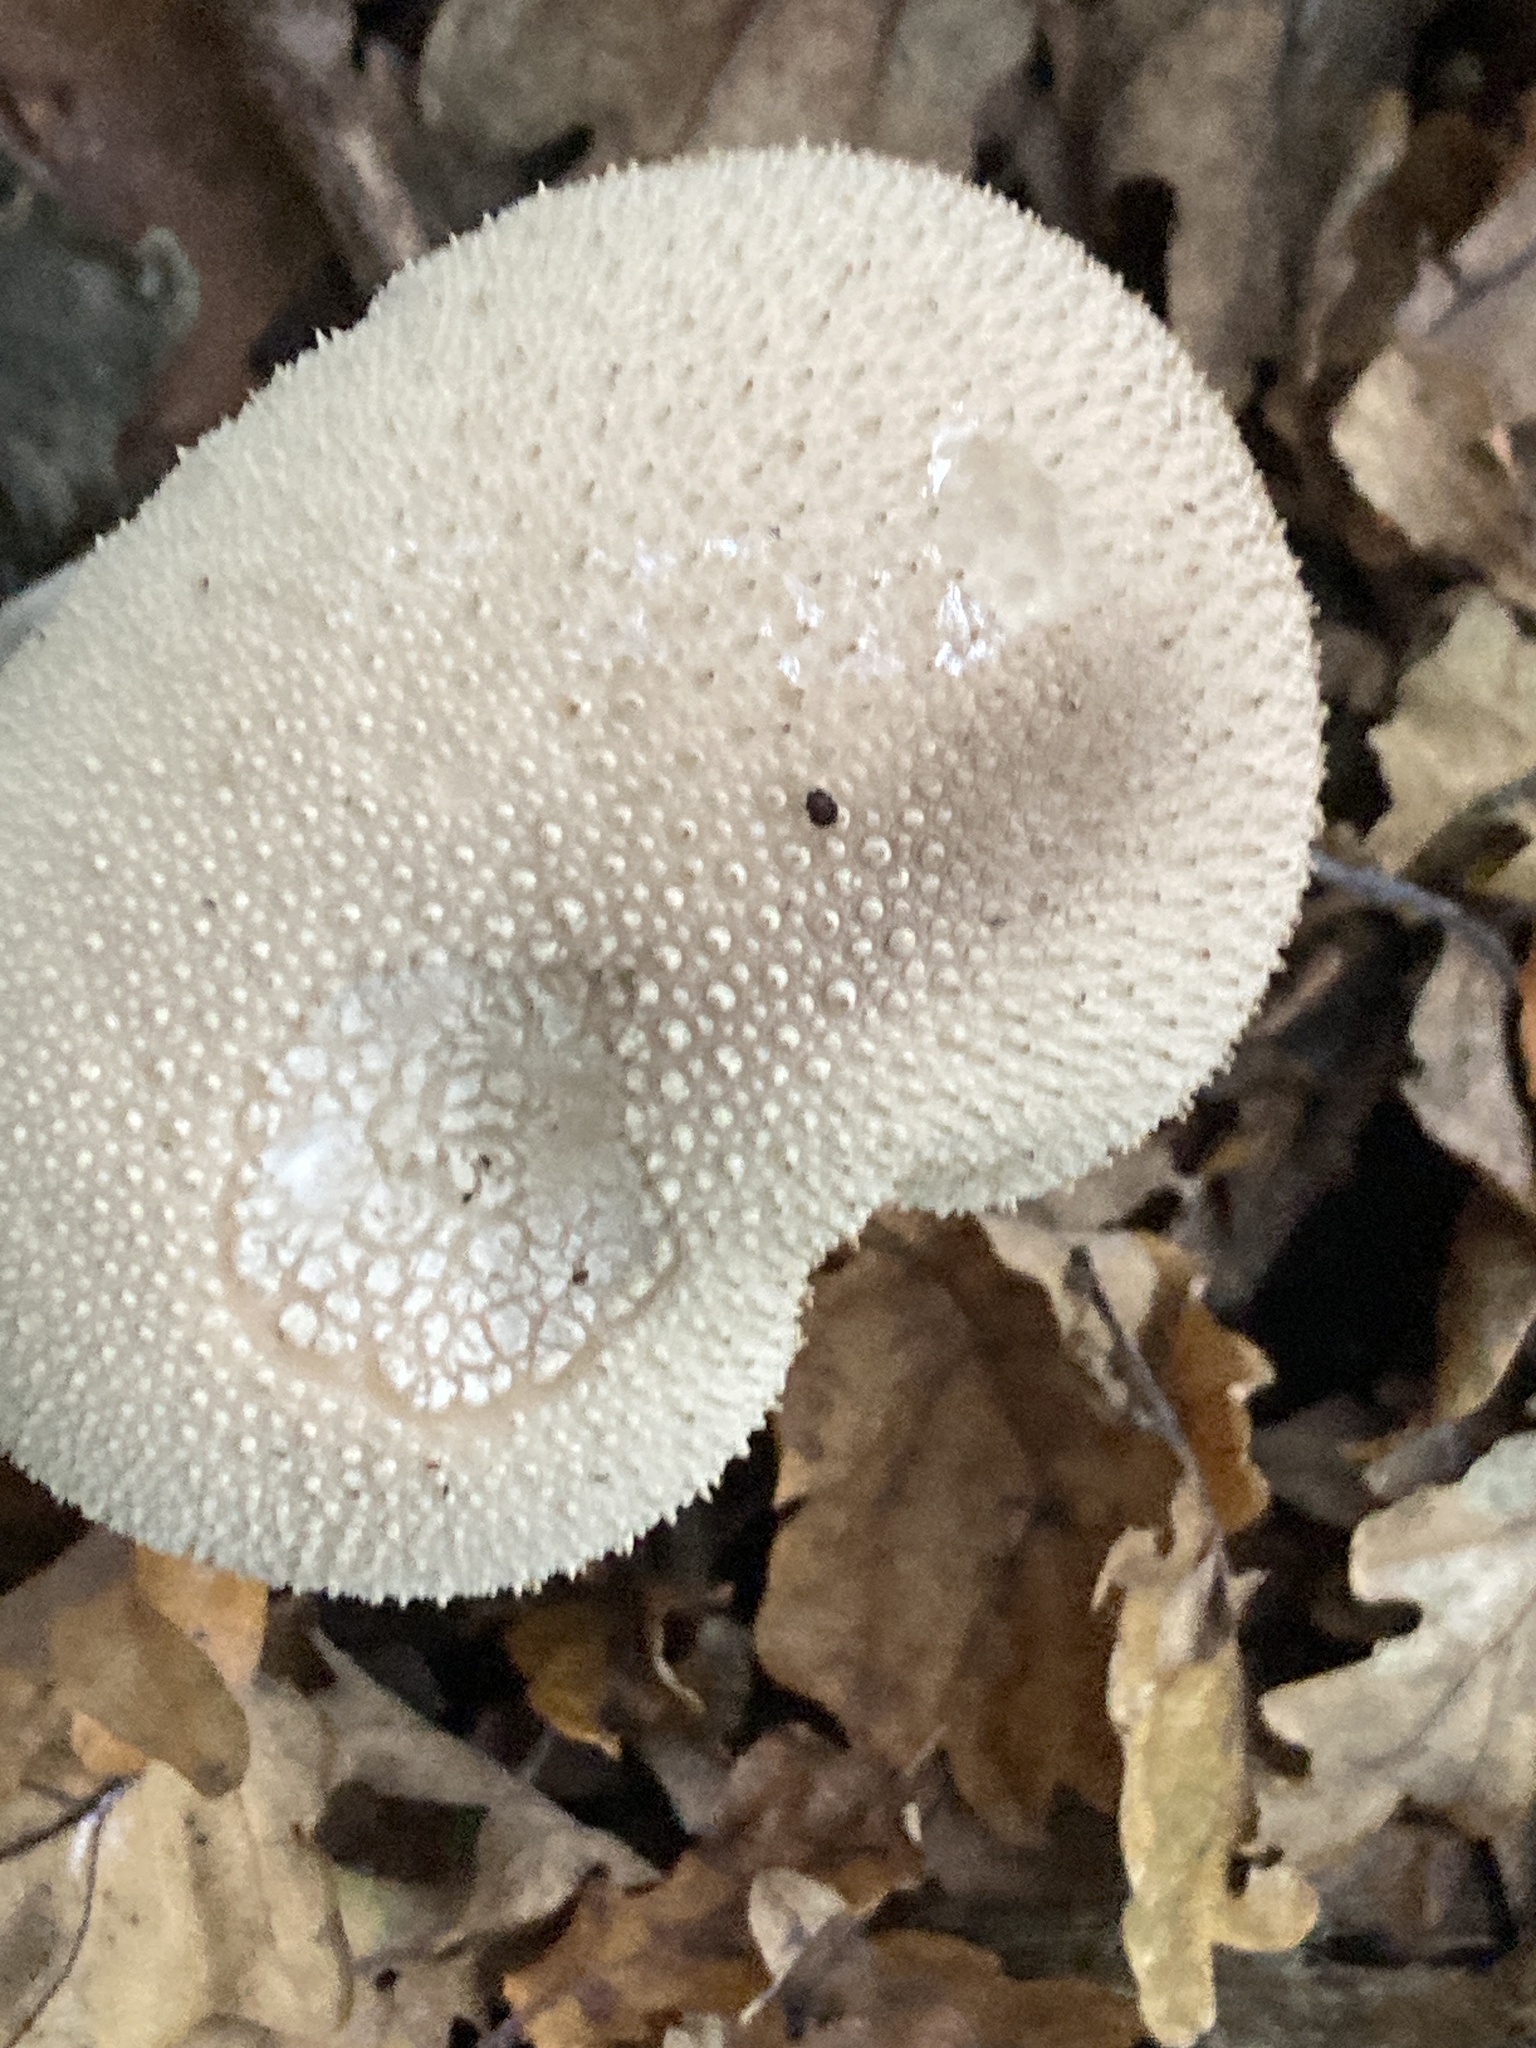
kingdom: Fungi
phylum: Basidiomycota
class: Agaricomycetes
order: Agaricales
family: Lycoperdaceae
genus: Lycoperdon
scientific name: Lycoperdon perlatum
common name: Common puffball
